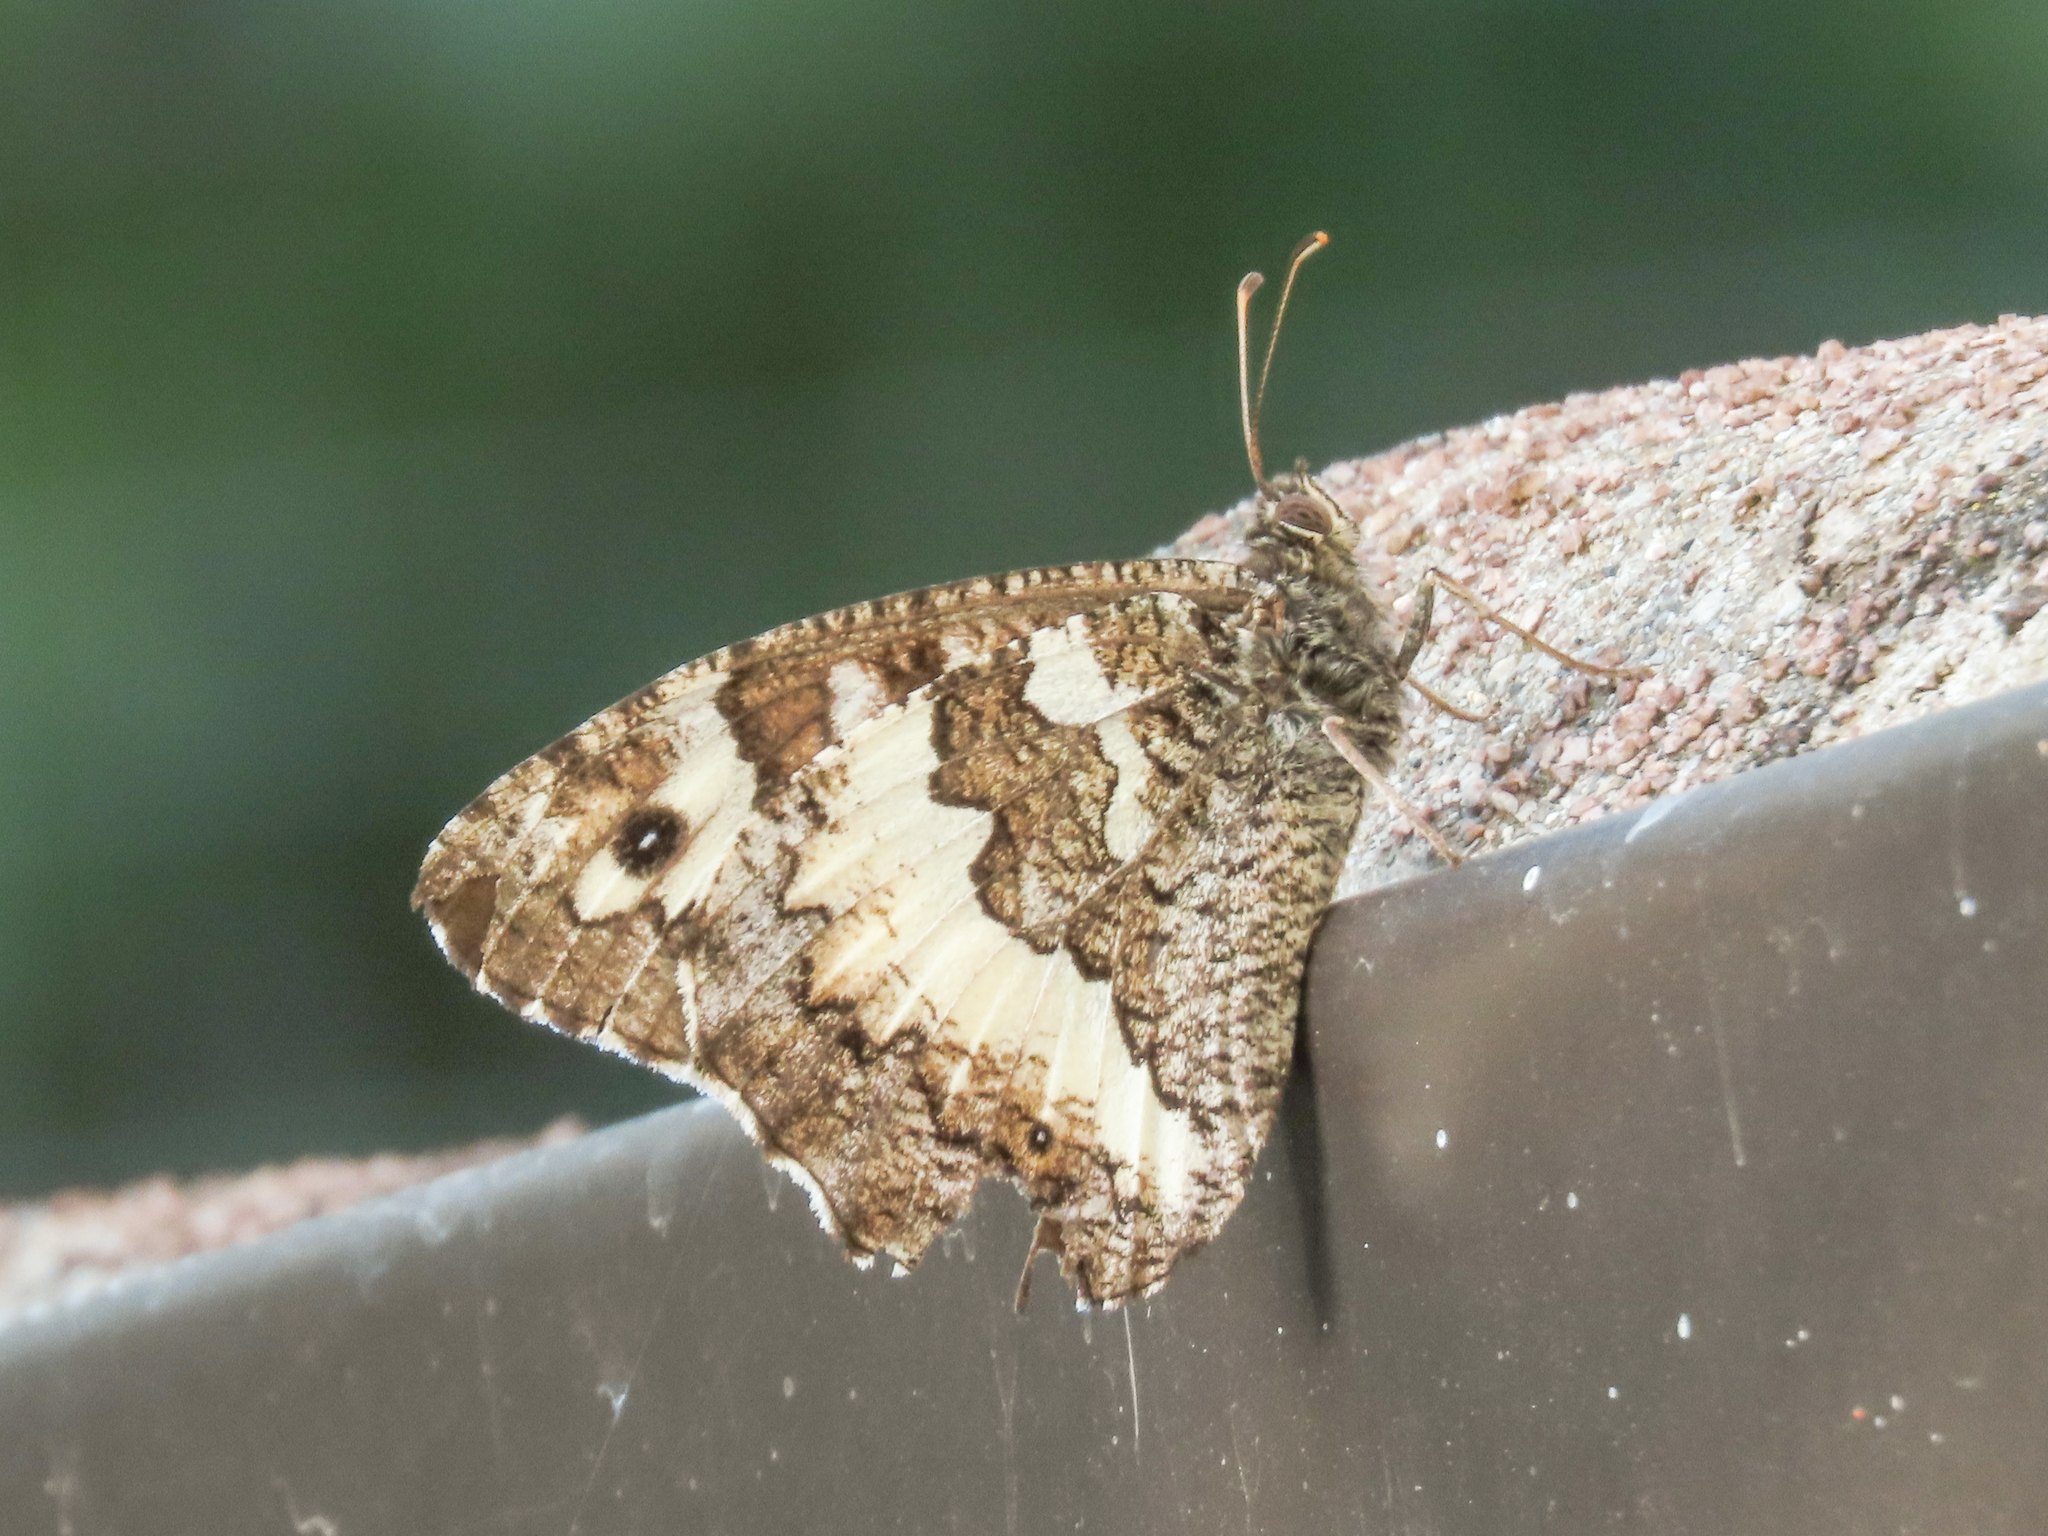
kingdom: Animalia
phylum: Arthropoda
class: Insecta
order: Lepidoptera
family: Lycaenidae
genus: Loweia
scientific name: Loweia tityrus
